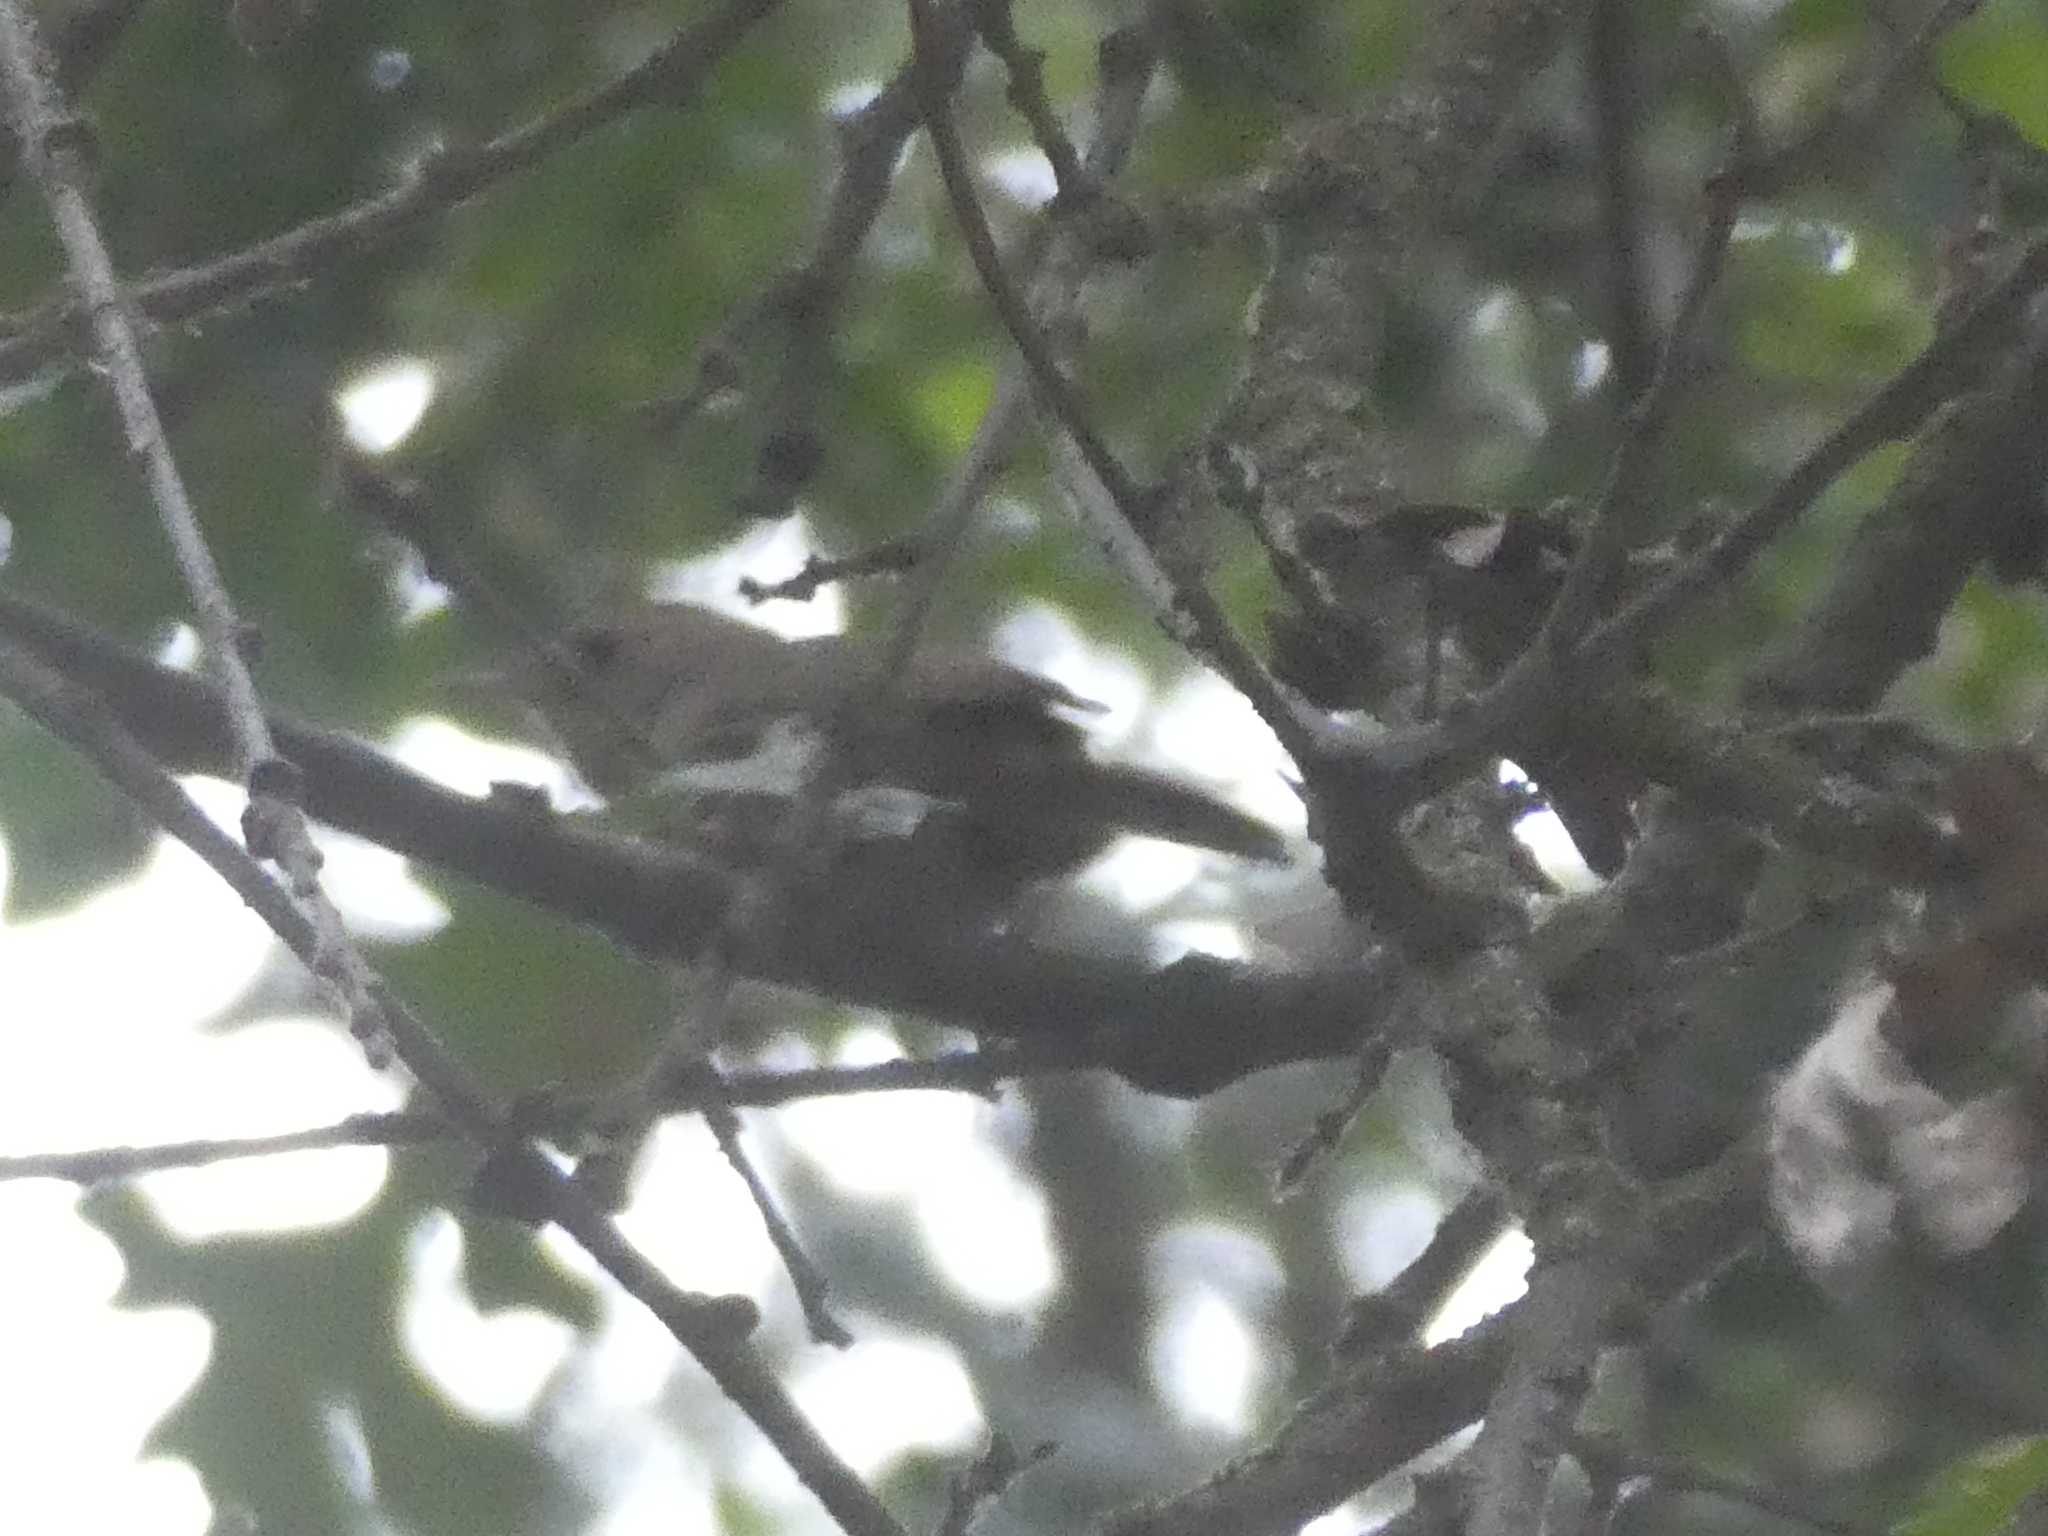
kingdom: Animalia
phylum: Chordata
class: Aves
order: Passeriformes
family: Troglodytidae
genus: Troglodytes
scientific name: Troglodytes aedon
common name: House wren
